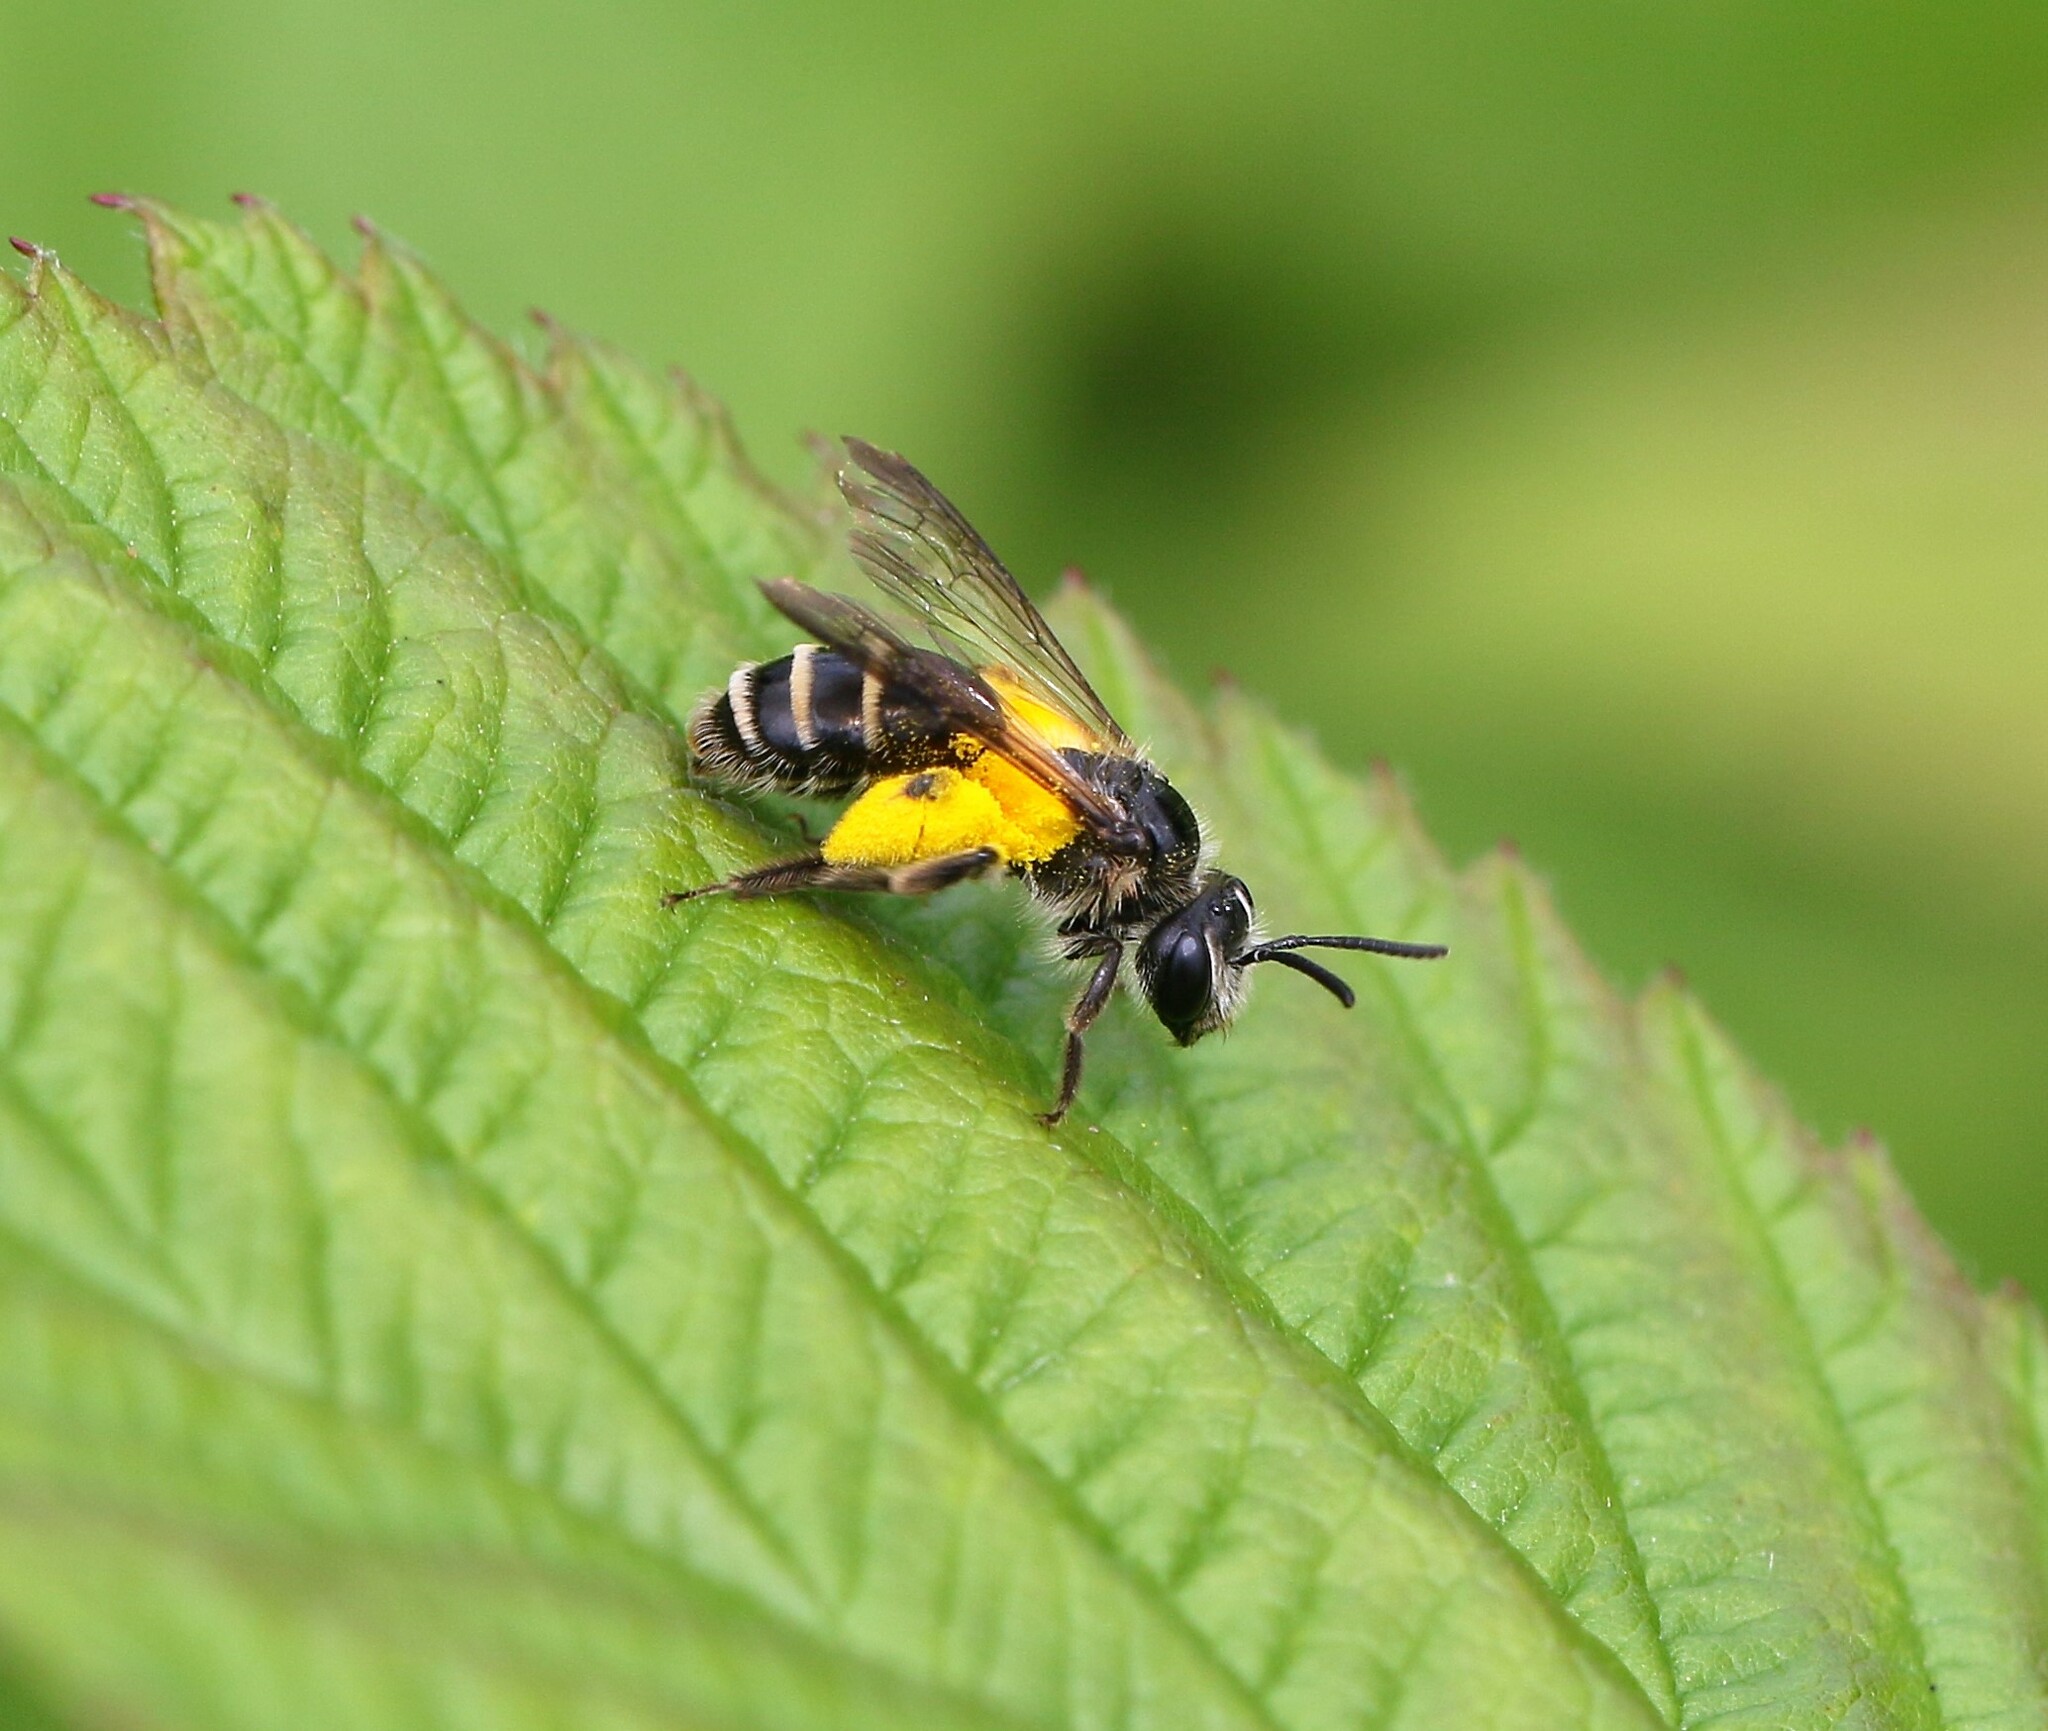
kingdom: Animalia
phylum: Arthropoda
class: Insecta
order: Hymenoptera
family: Andrenidae
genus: Andrena
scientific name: Andrena nubecula
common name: Cloudy-winged mining bee
